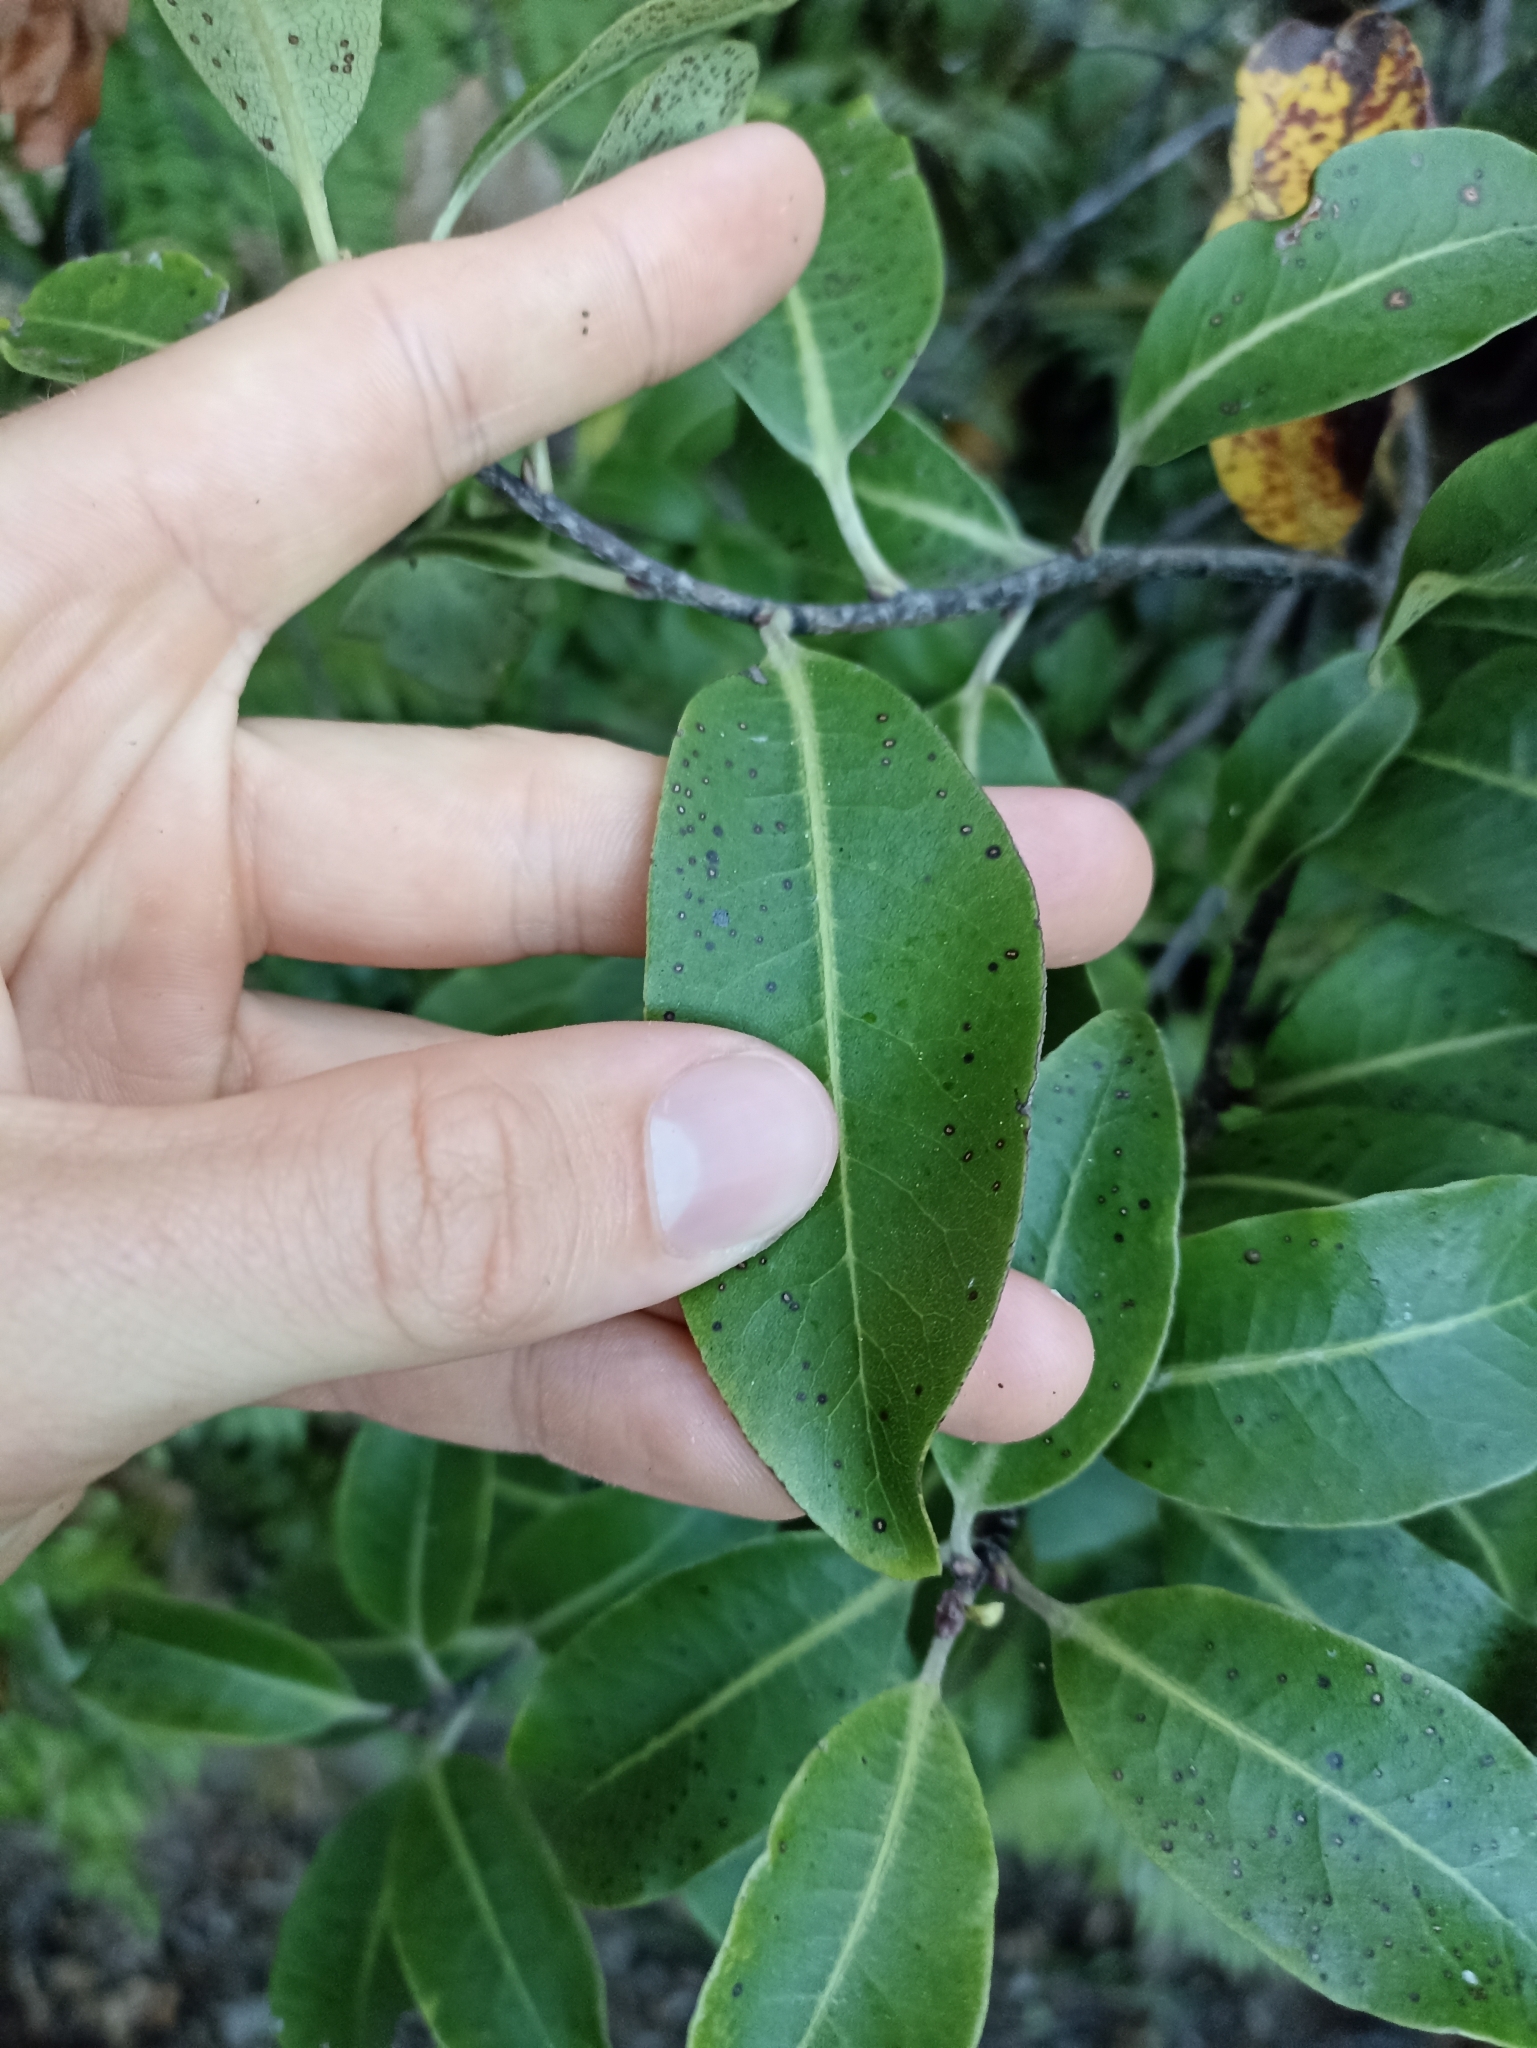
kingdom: Plantae
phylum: Tracheophyta
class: Magnoliopsida
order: Apiales
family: Pittosporaceae
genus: Pittosporum
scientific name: Pittosporum colensoi
